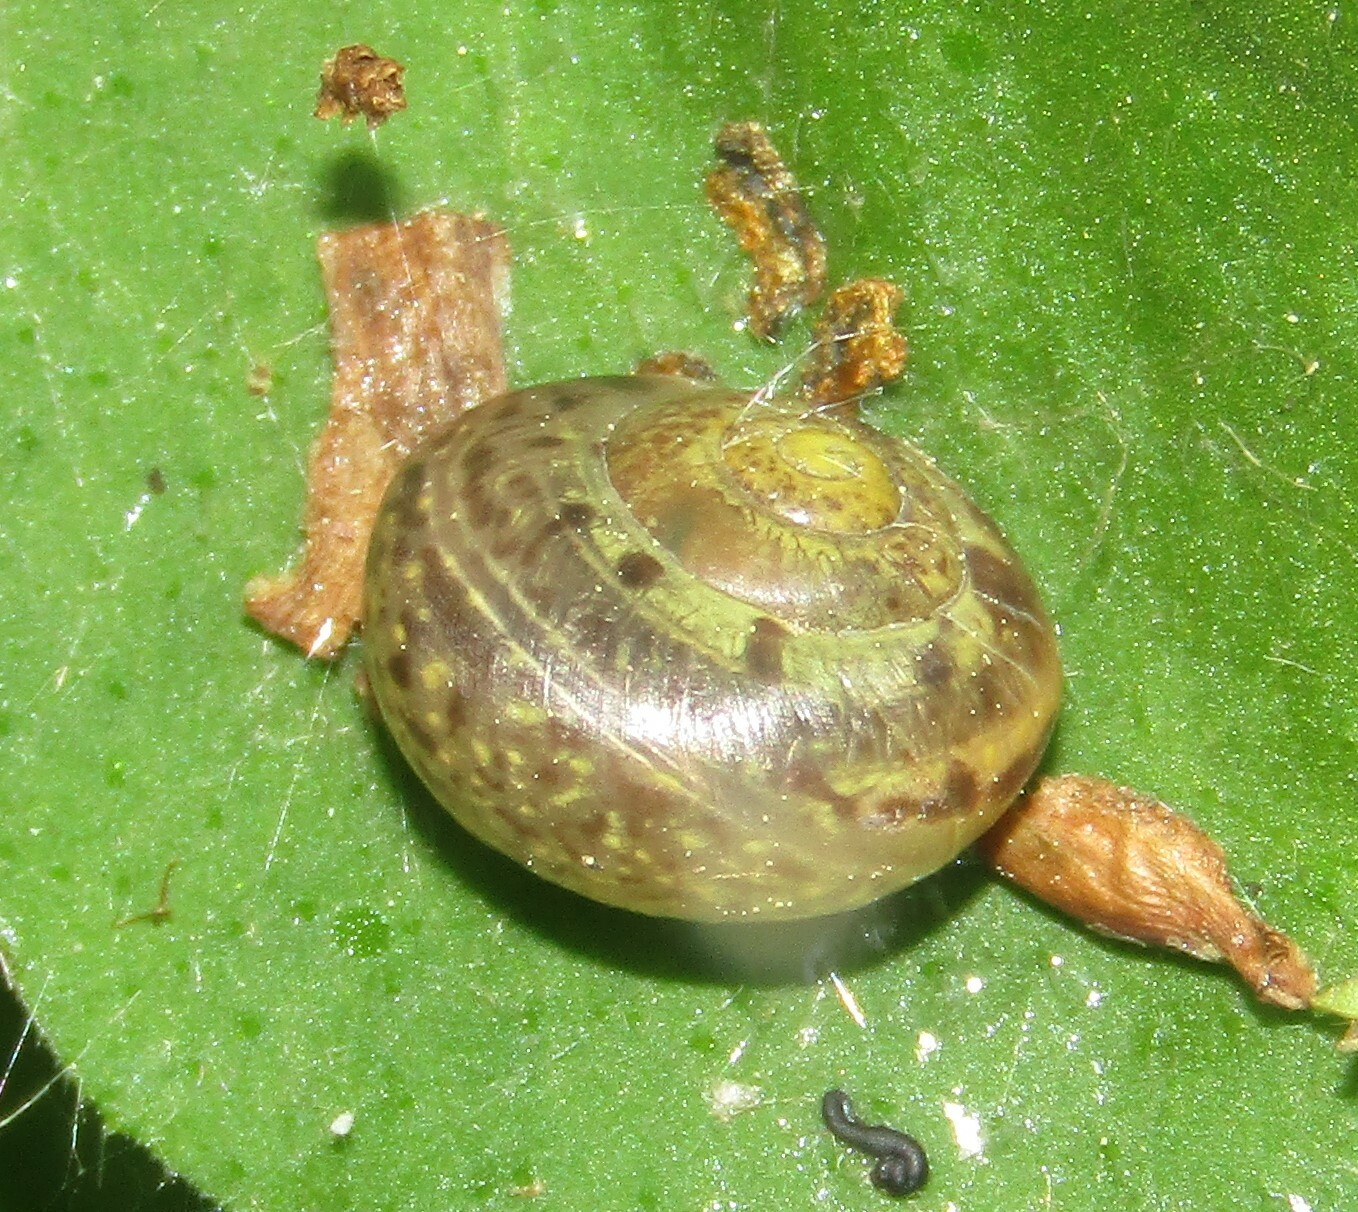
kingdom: Animalia
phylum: Mollusca
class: Gastropoda
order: Stylommatophora
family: Camaenidae
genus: Fruticicola
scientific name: Fruticicola fruticum
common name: Bush snail
